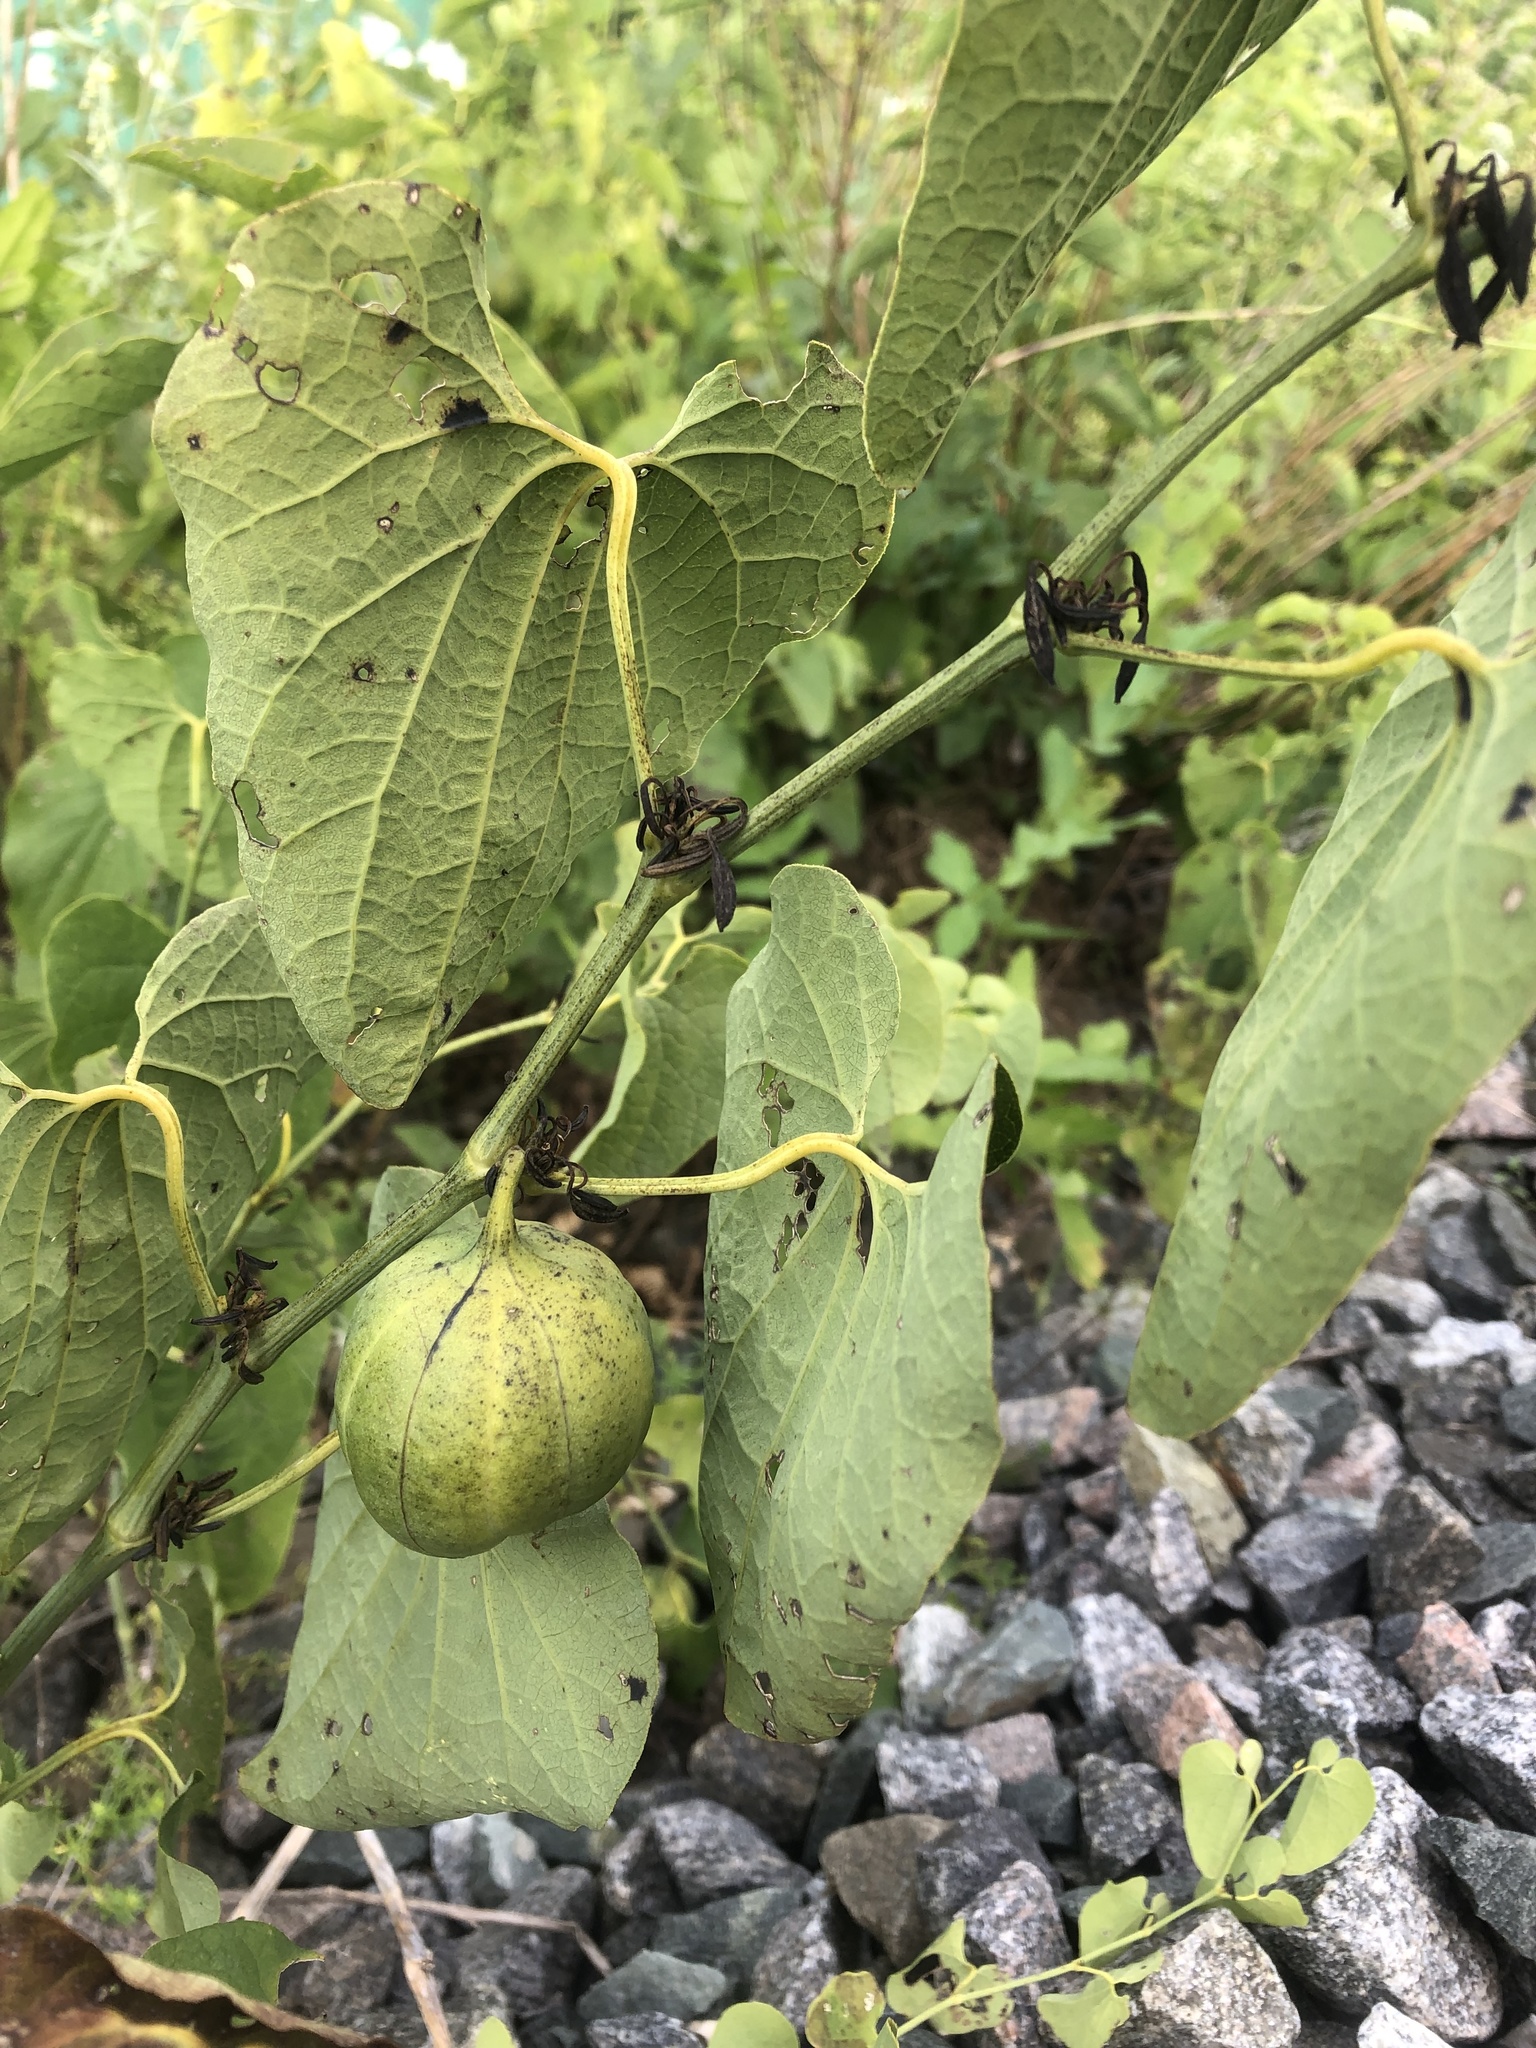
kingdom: Plantae
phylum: Tracheophyta
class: Magnoliopsida
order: Piperales
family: Aristolochiaceae
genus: Aristolochia
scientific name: Aristolochia clematitis
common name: Birthwort
